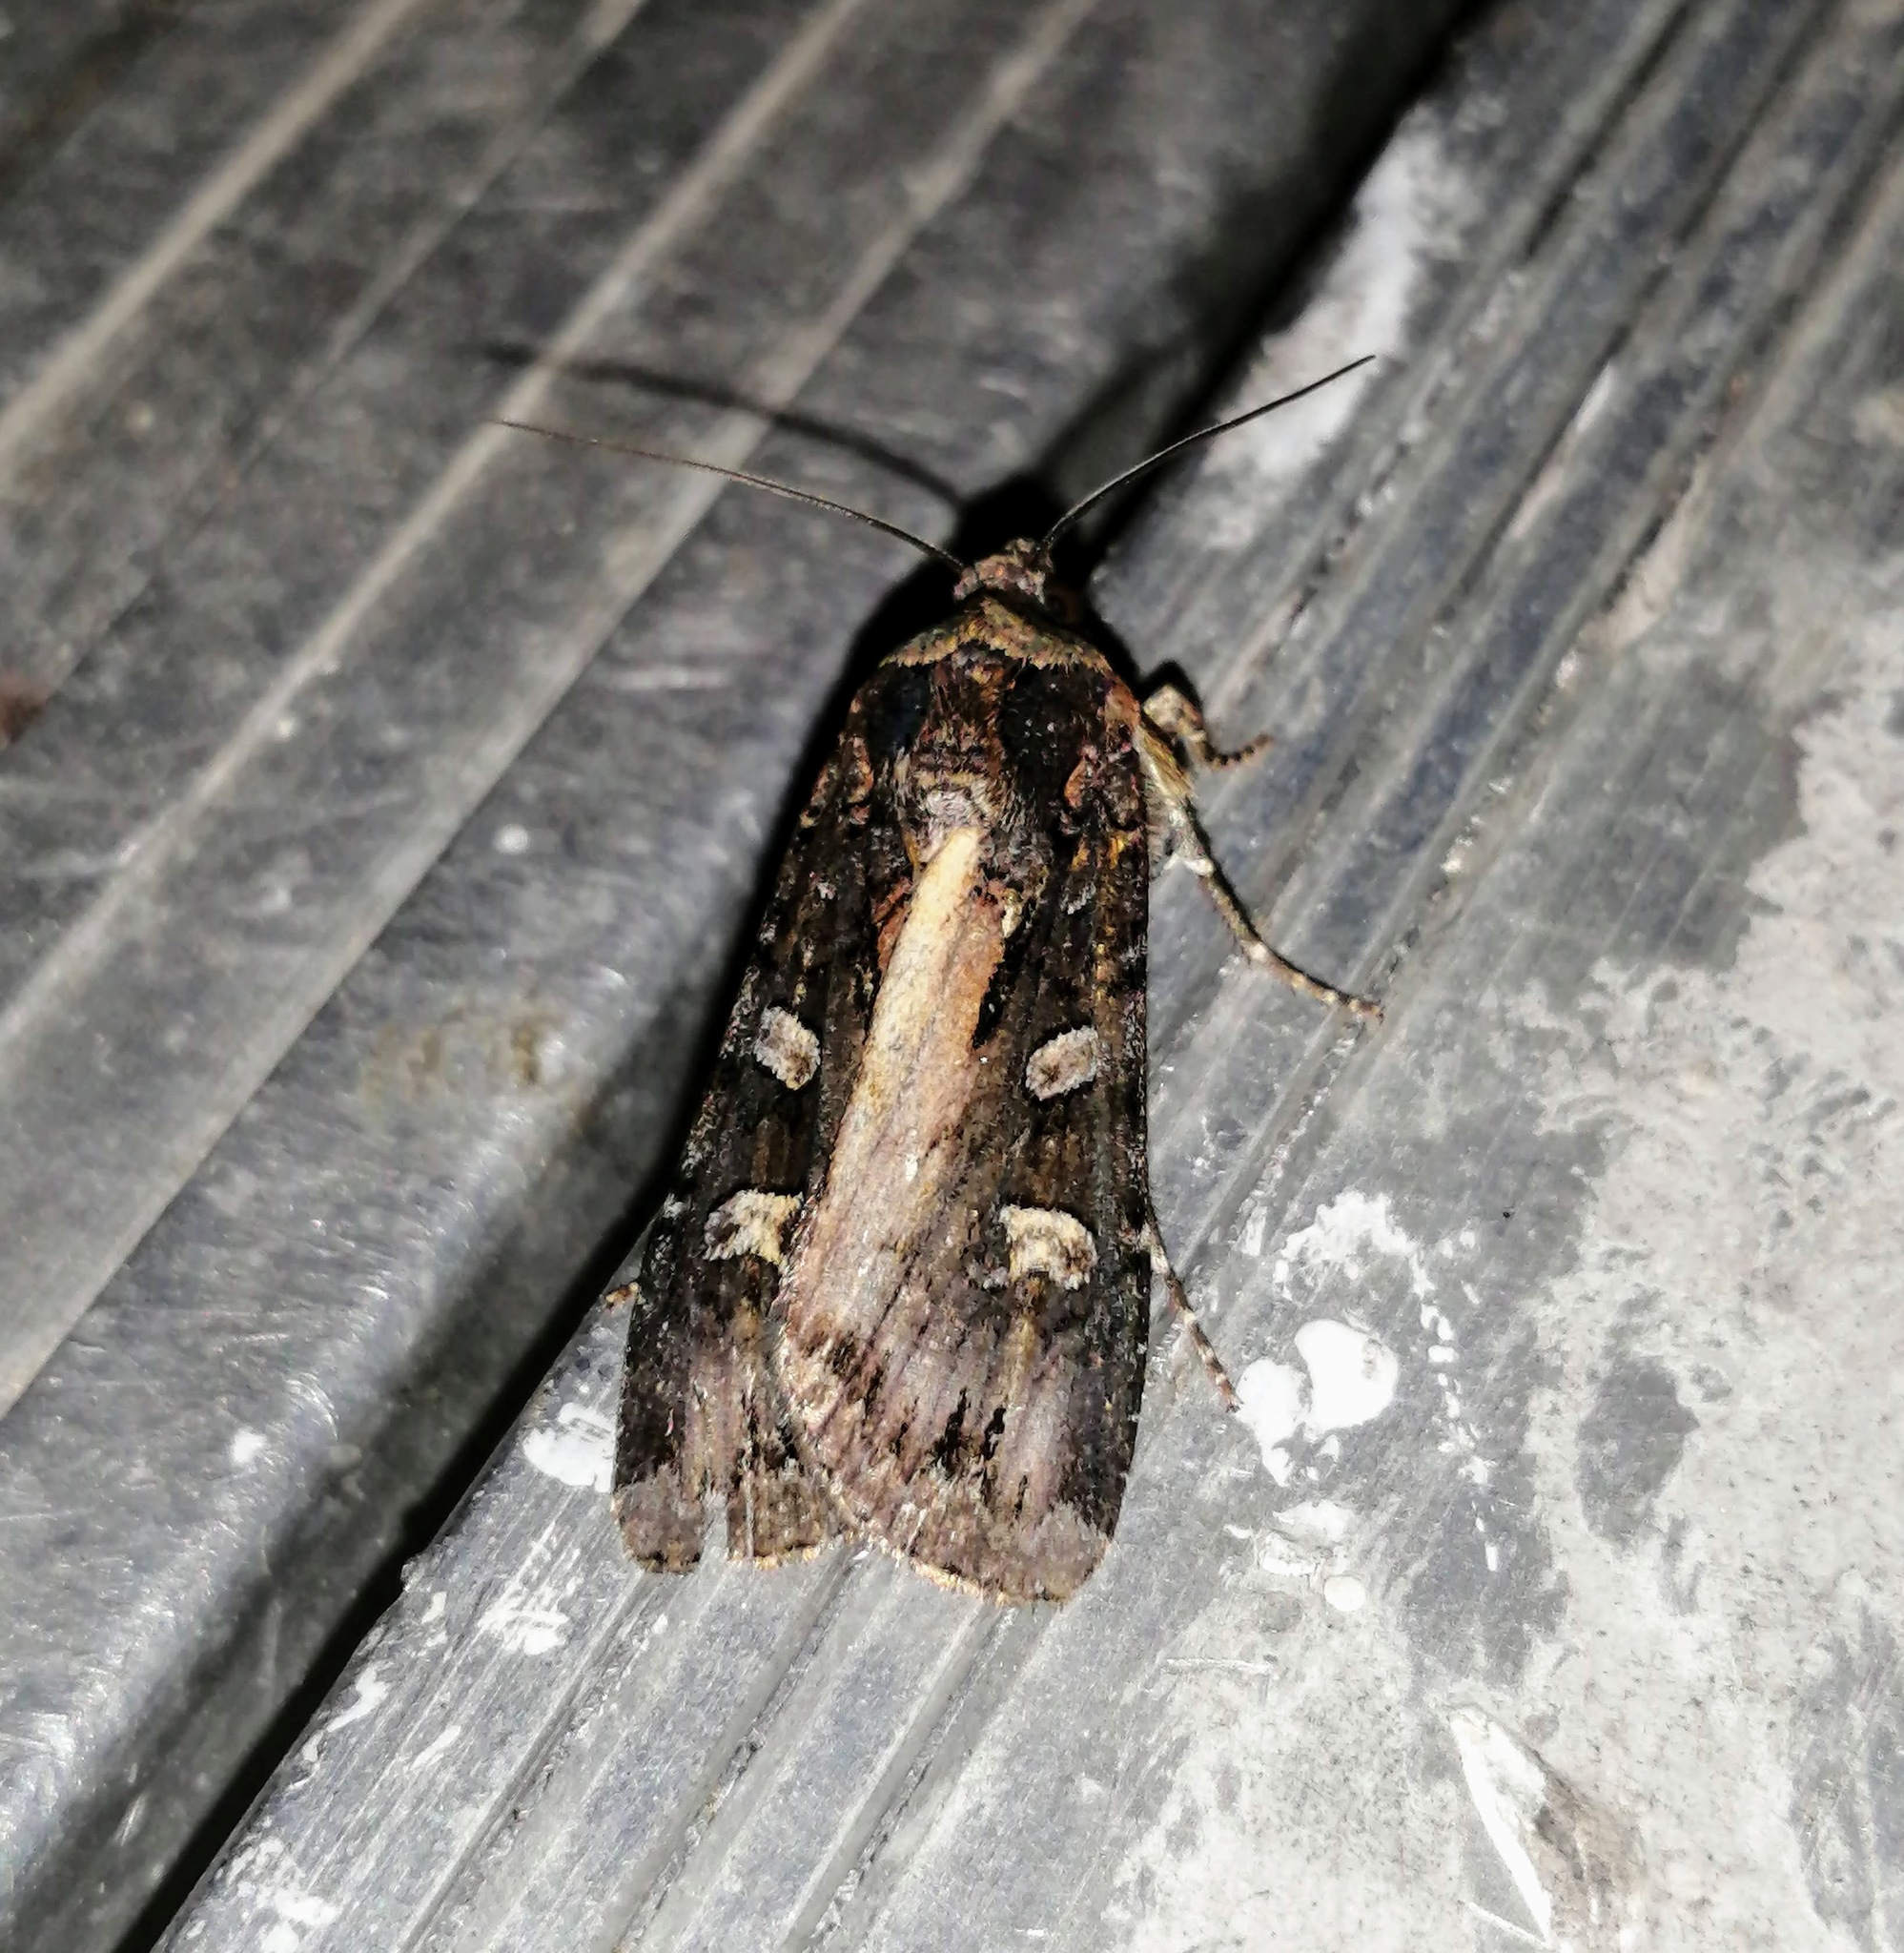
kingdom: Animalia
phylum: Arthropoda
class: Insecta
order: Lepidoptera
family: Noctuidae
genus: Actebia
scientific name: Actebia fennica
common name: Eversmann's rustic
